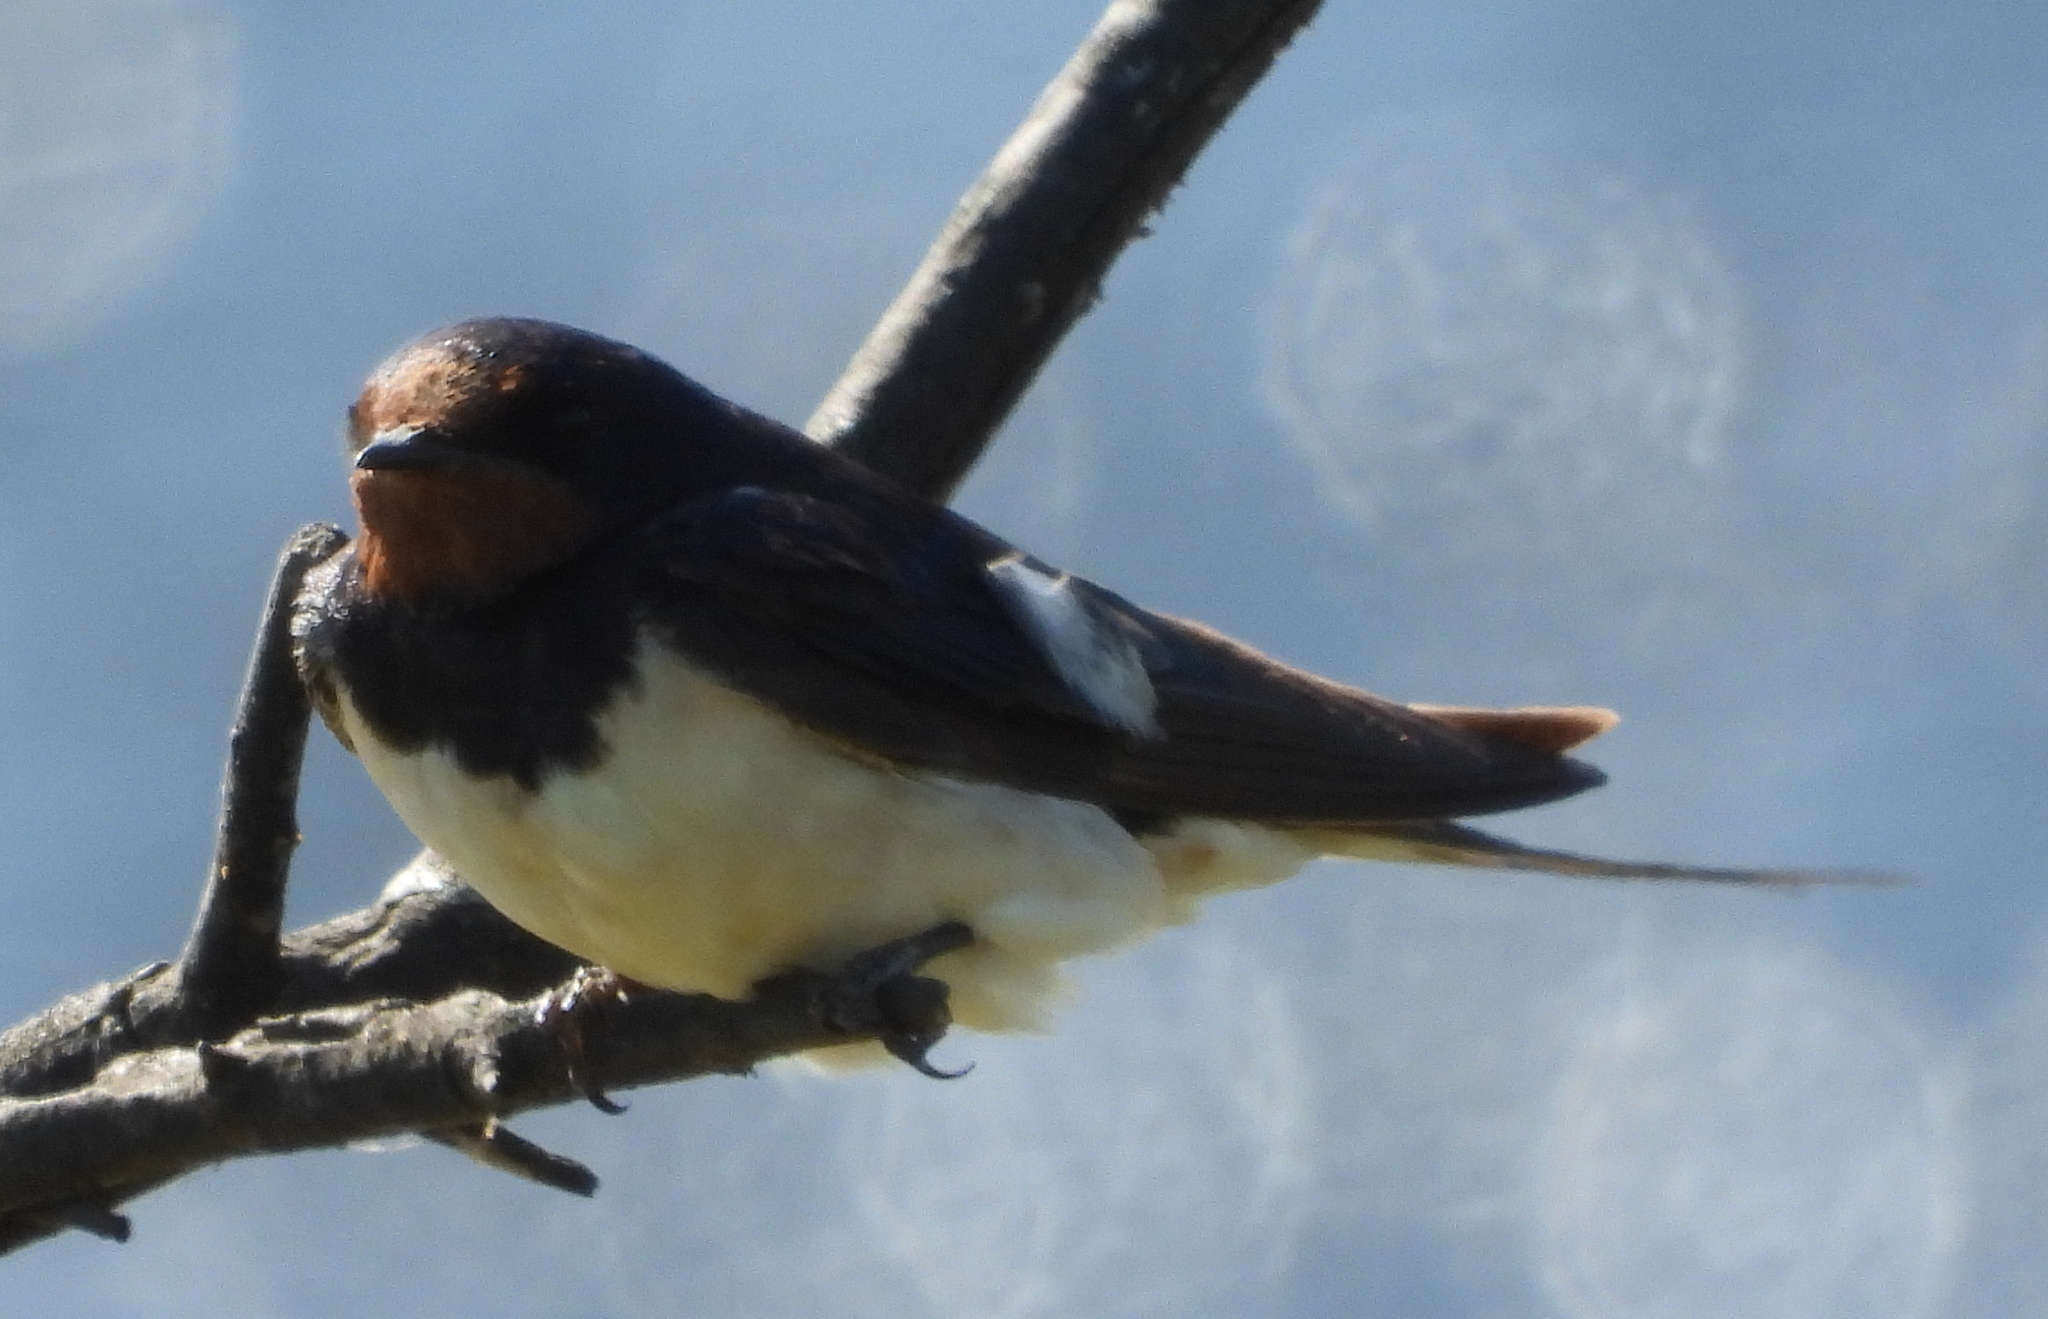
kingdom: Animalia
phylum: Chordata
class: Aves
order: Passeriformes
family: Hirundinidae
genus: Hirundo
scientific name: Hirundo rustica
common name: Barn swallow
